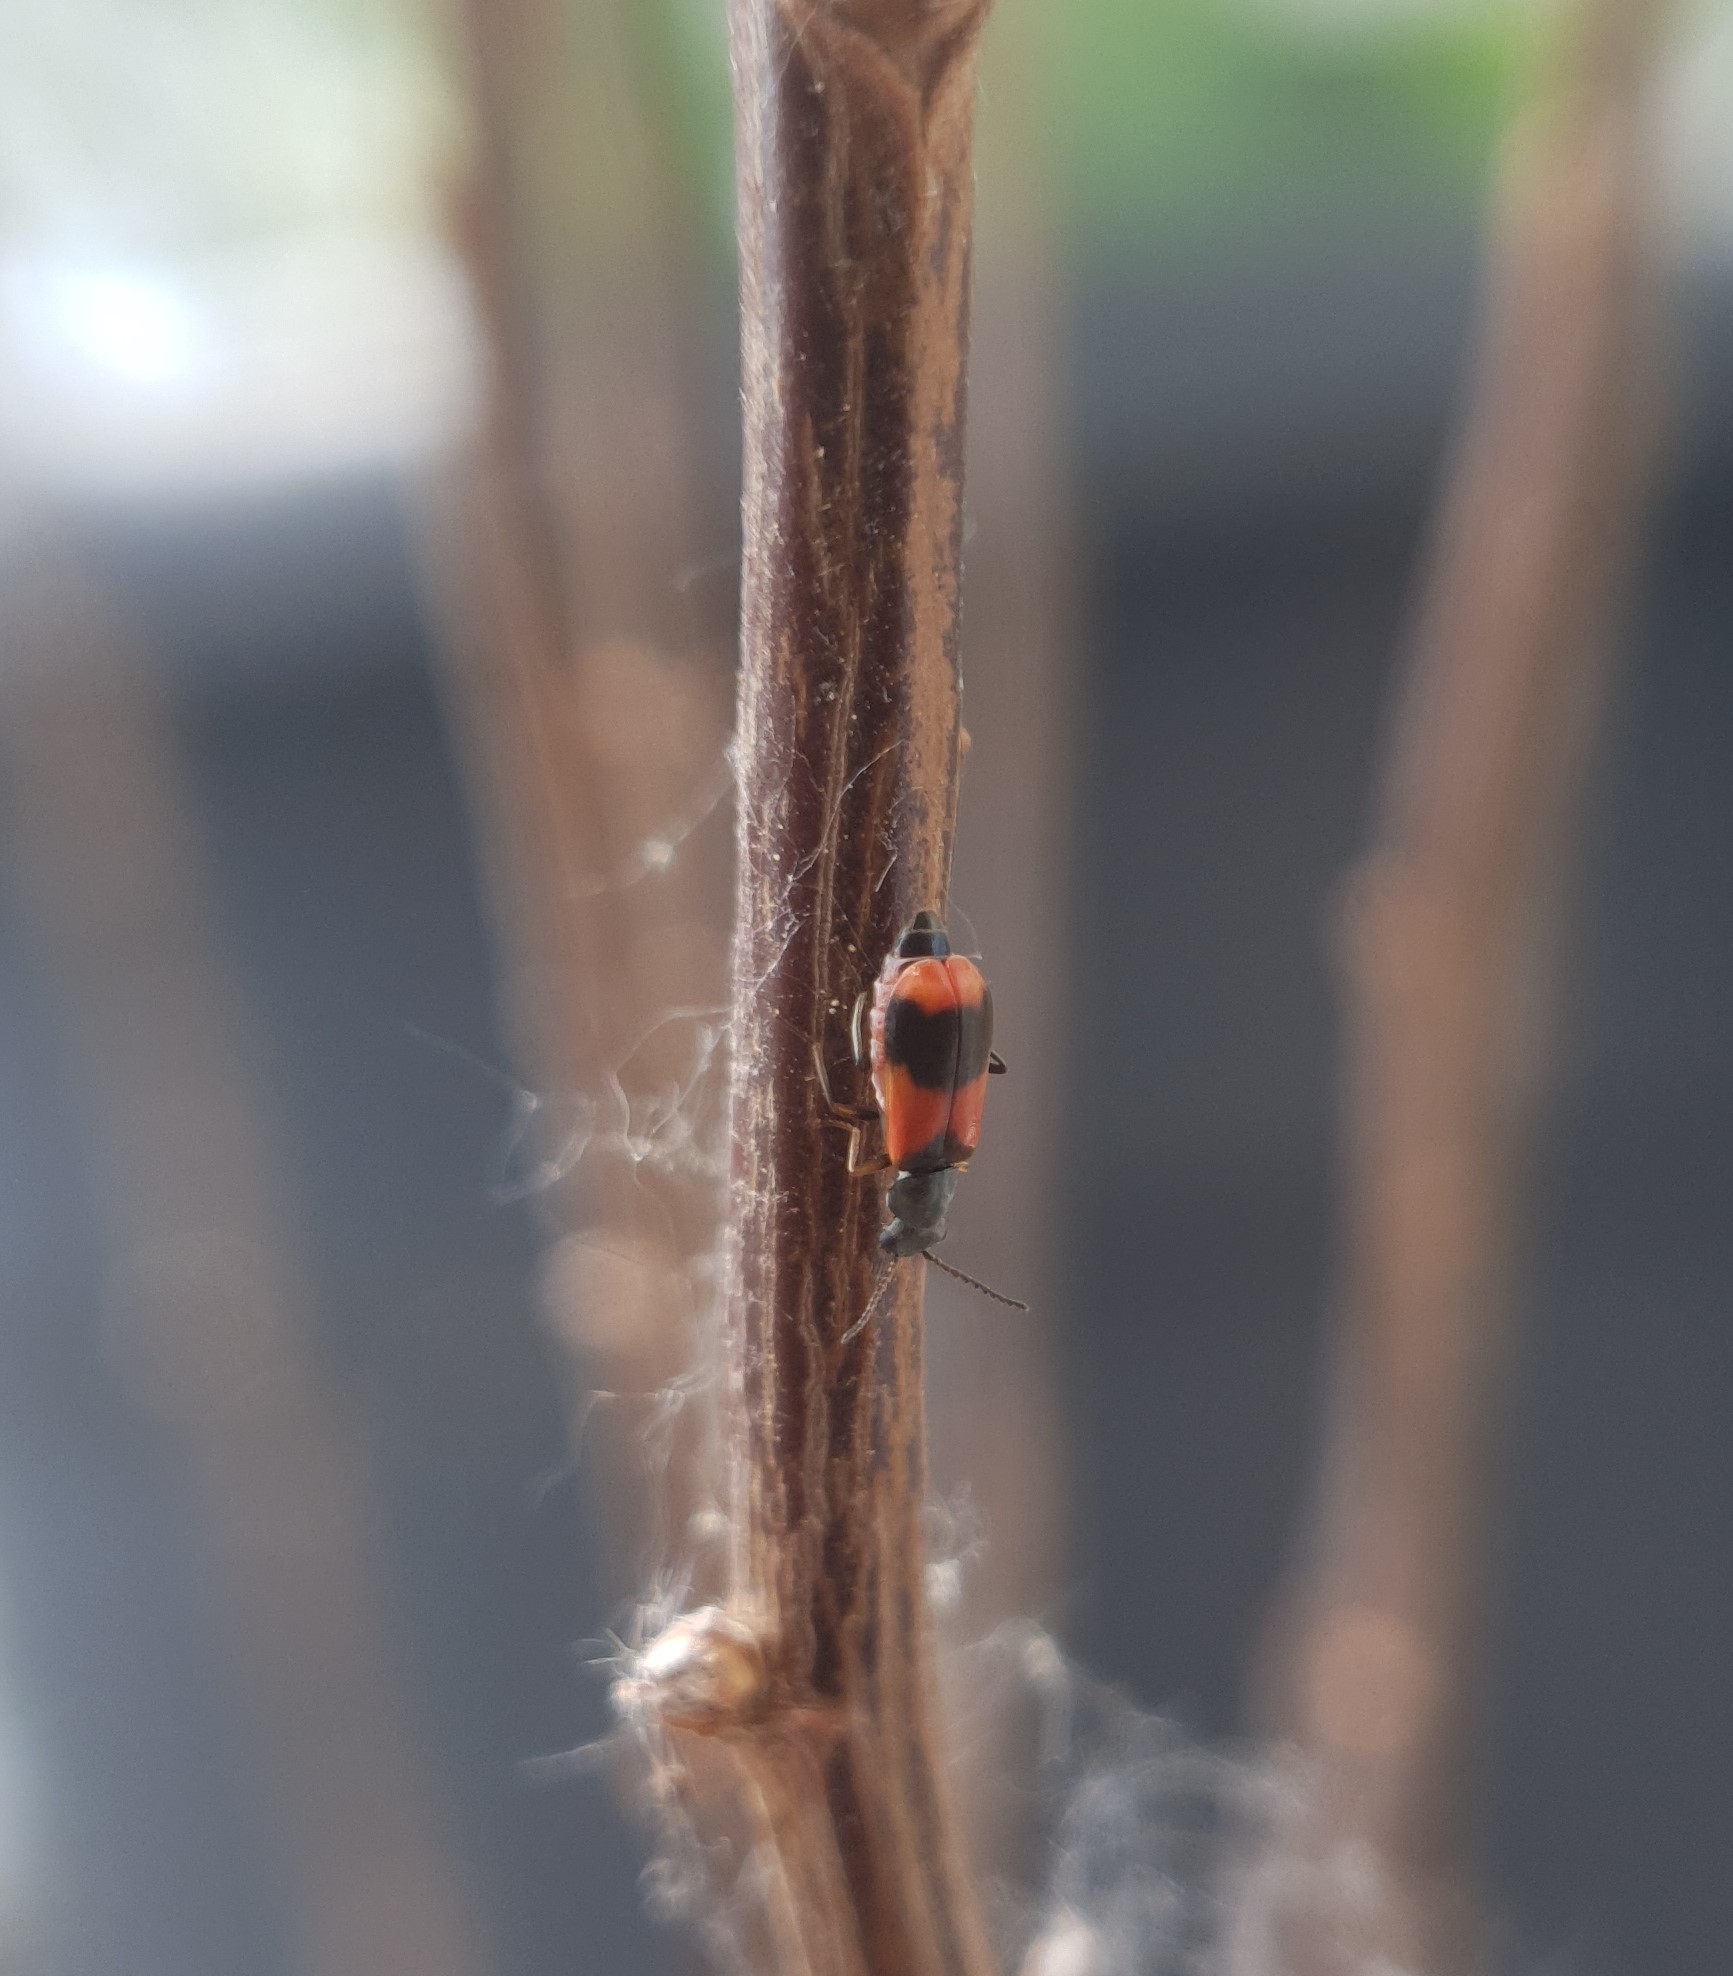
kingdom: Animalia
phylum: Arthropoda
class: Insecta
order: Coleoptera
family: Melyridae
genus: Anthocomus
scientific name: Anthocomus equestris
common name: Black-banded soft-winged flower beetle
